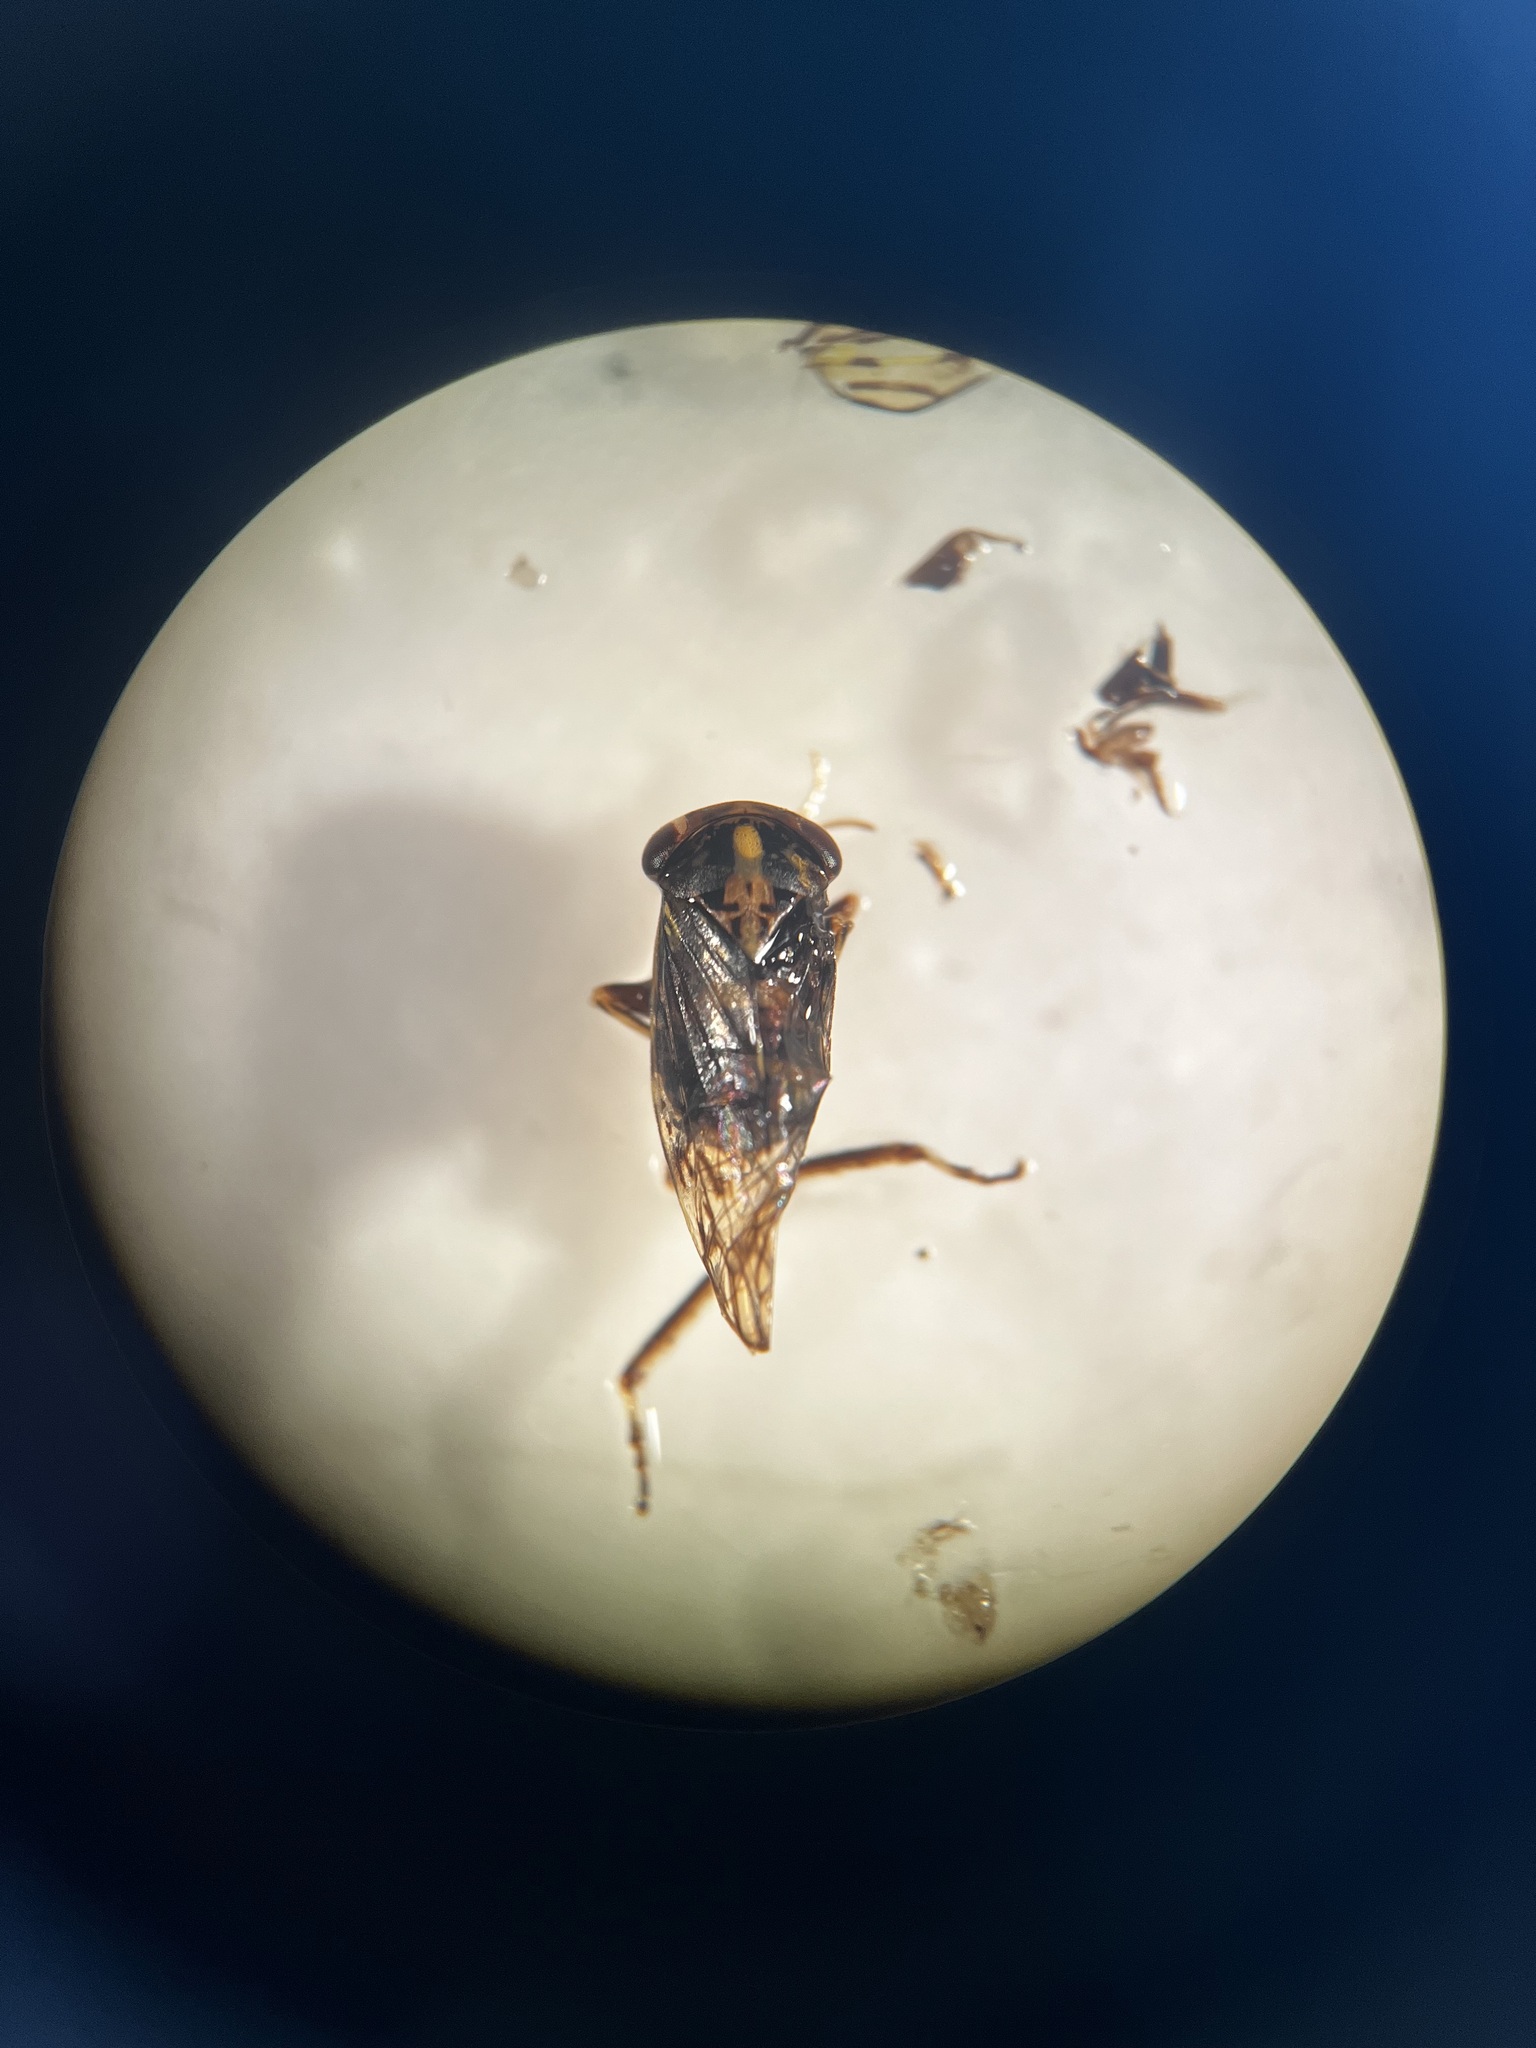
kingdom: Animalia
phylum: Arthropoda
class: Insecta
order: Hemiptera
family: Cicadellidae
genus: Metidiocerus
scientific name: Metidiocerus poecilus
